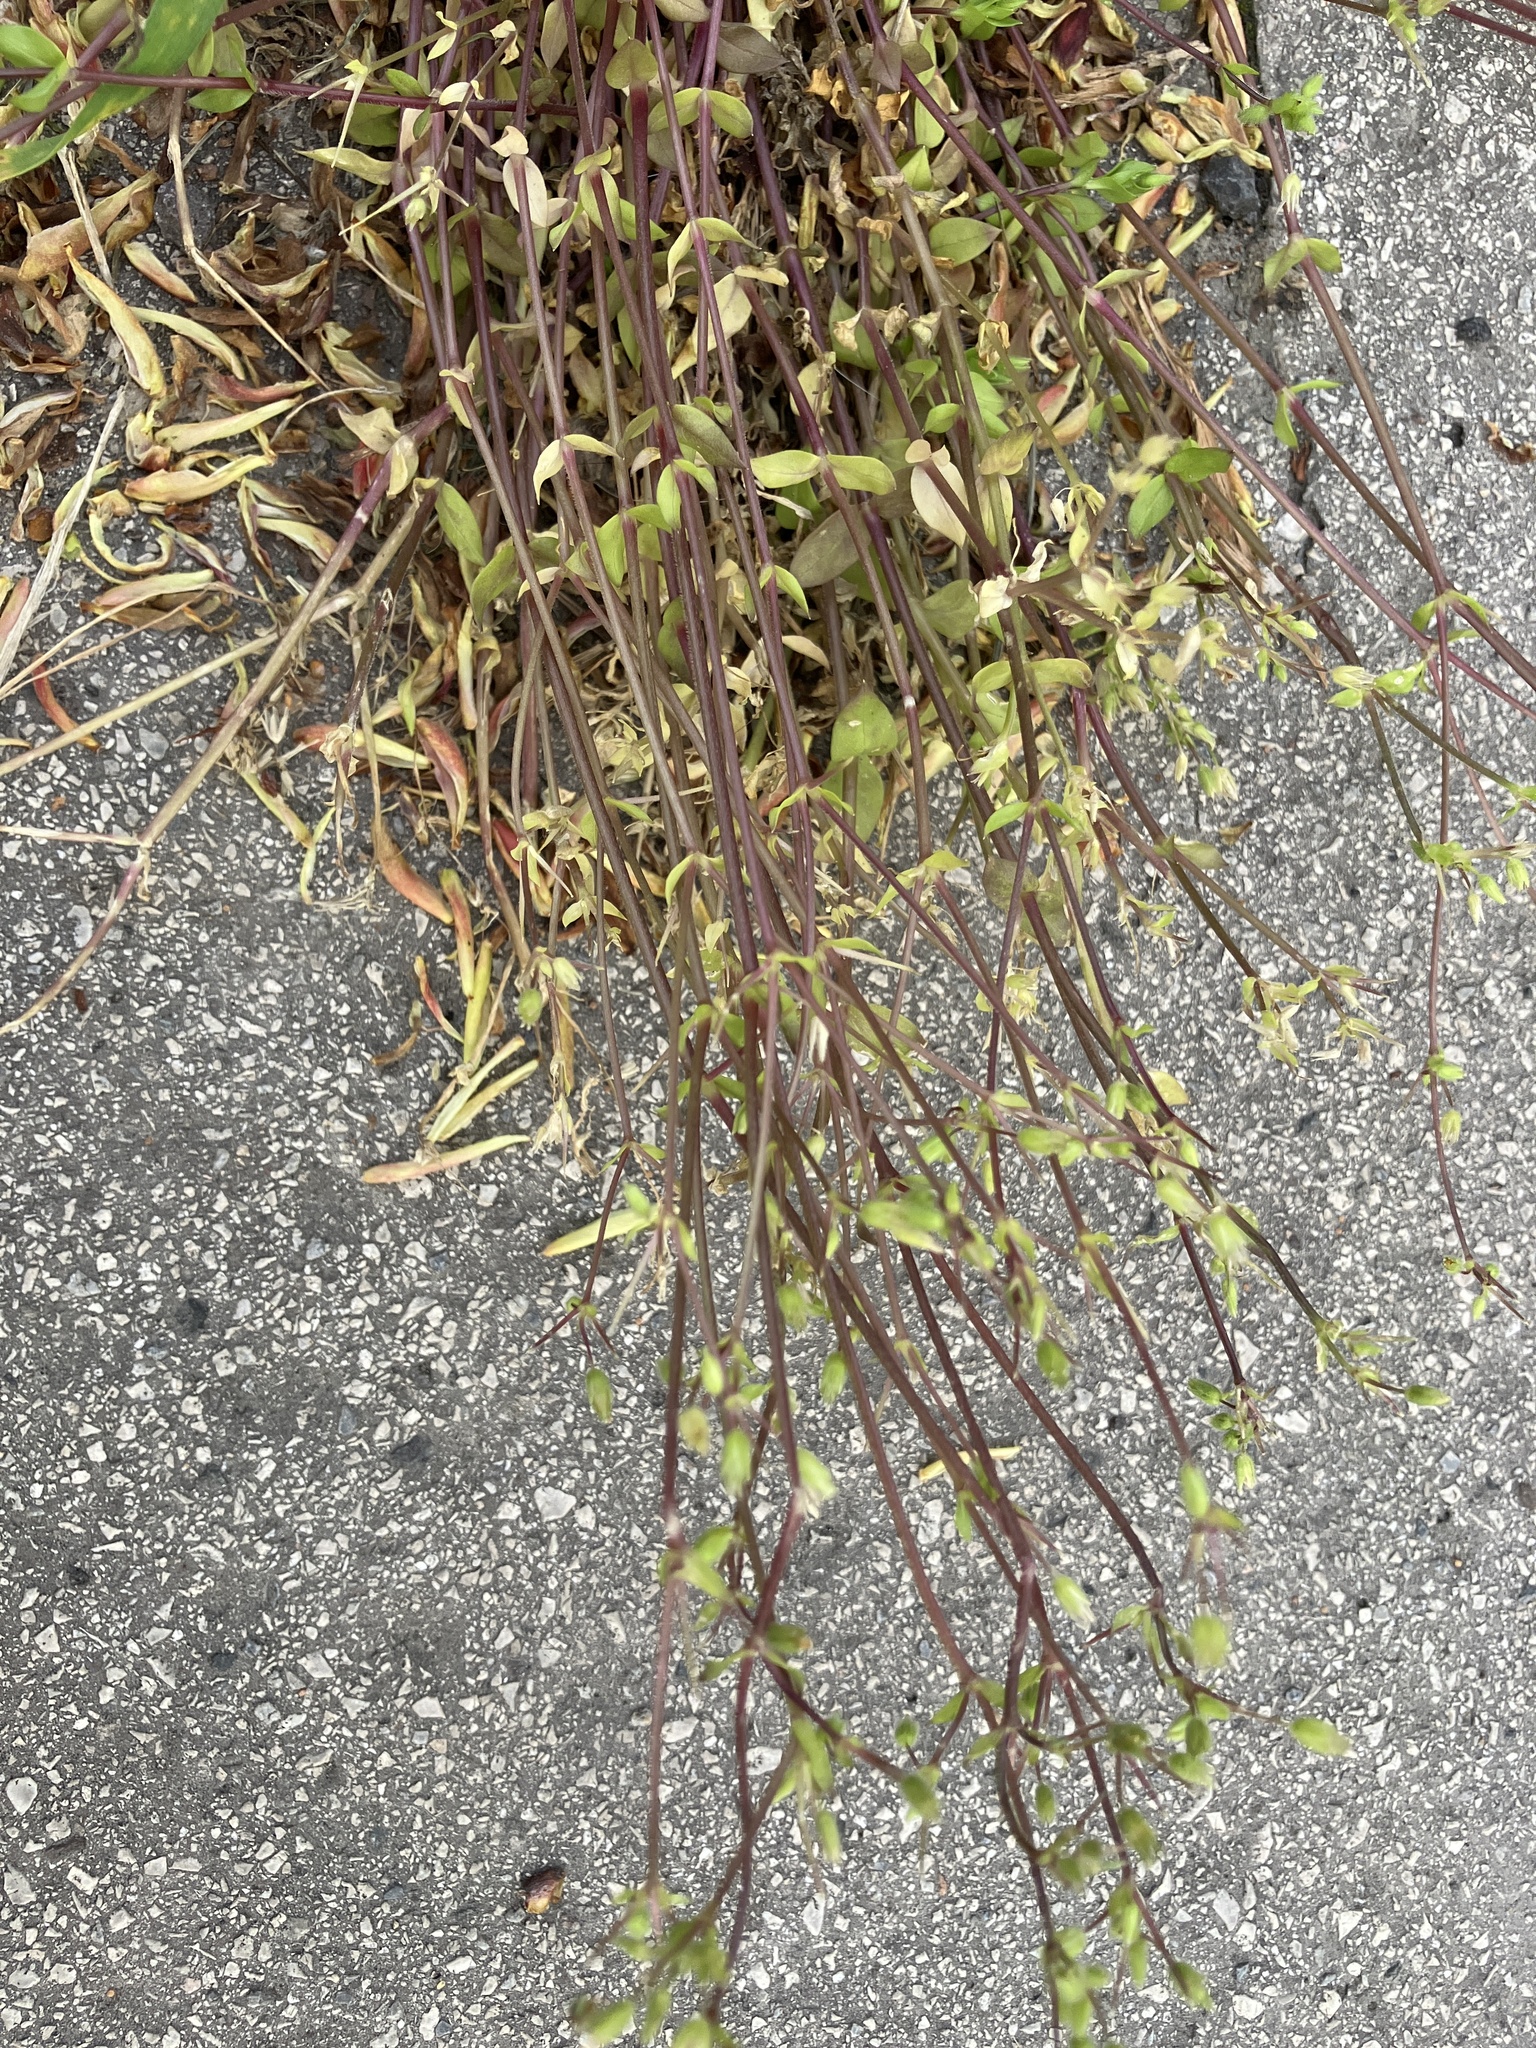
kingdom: Plantae
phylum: Tracheophyta
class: Magnoliopsida
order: Caryophyllales
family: Caryophyllaceae
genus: Stellaria
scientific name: Stellaria media
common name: Common chickweed
